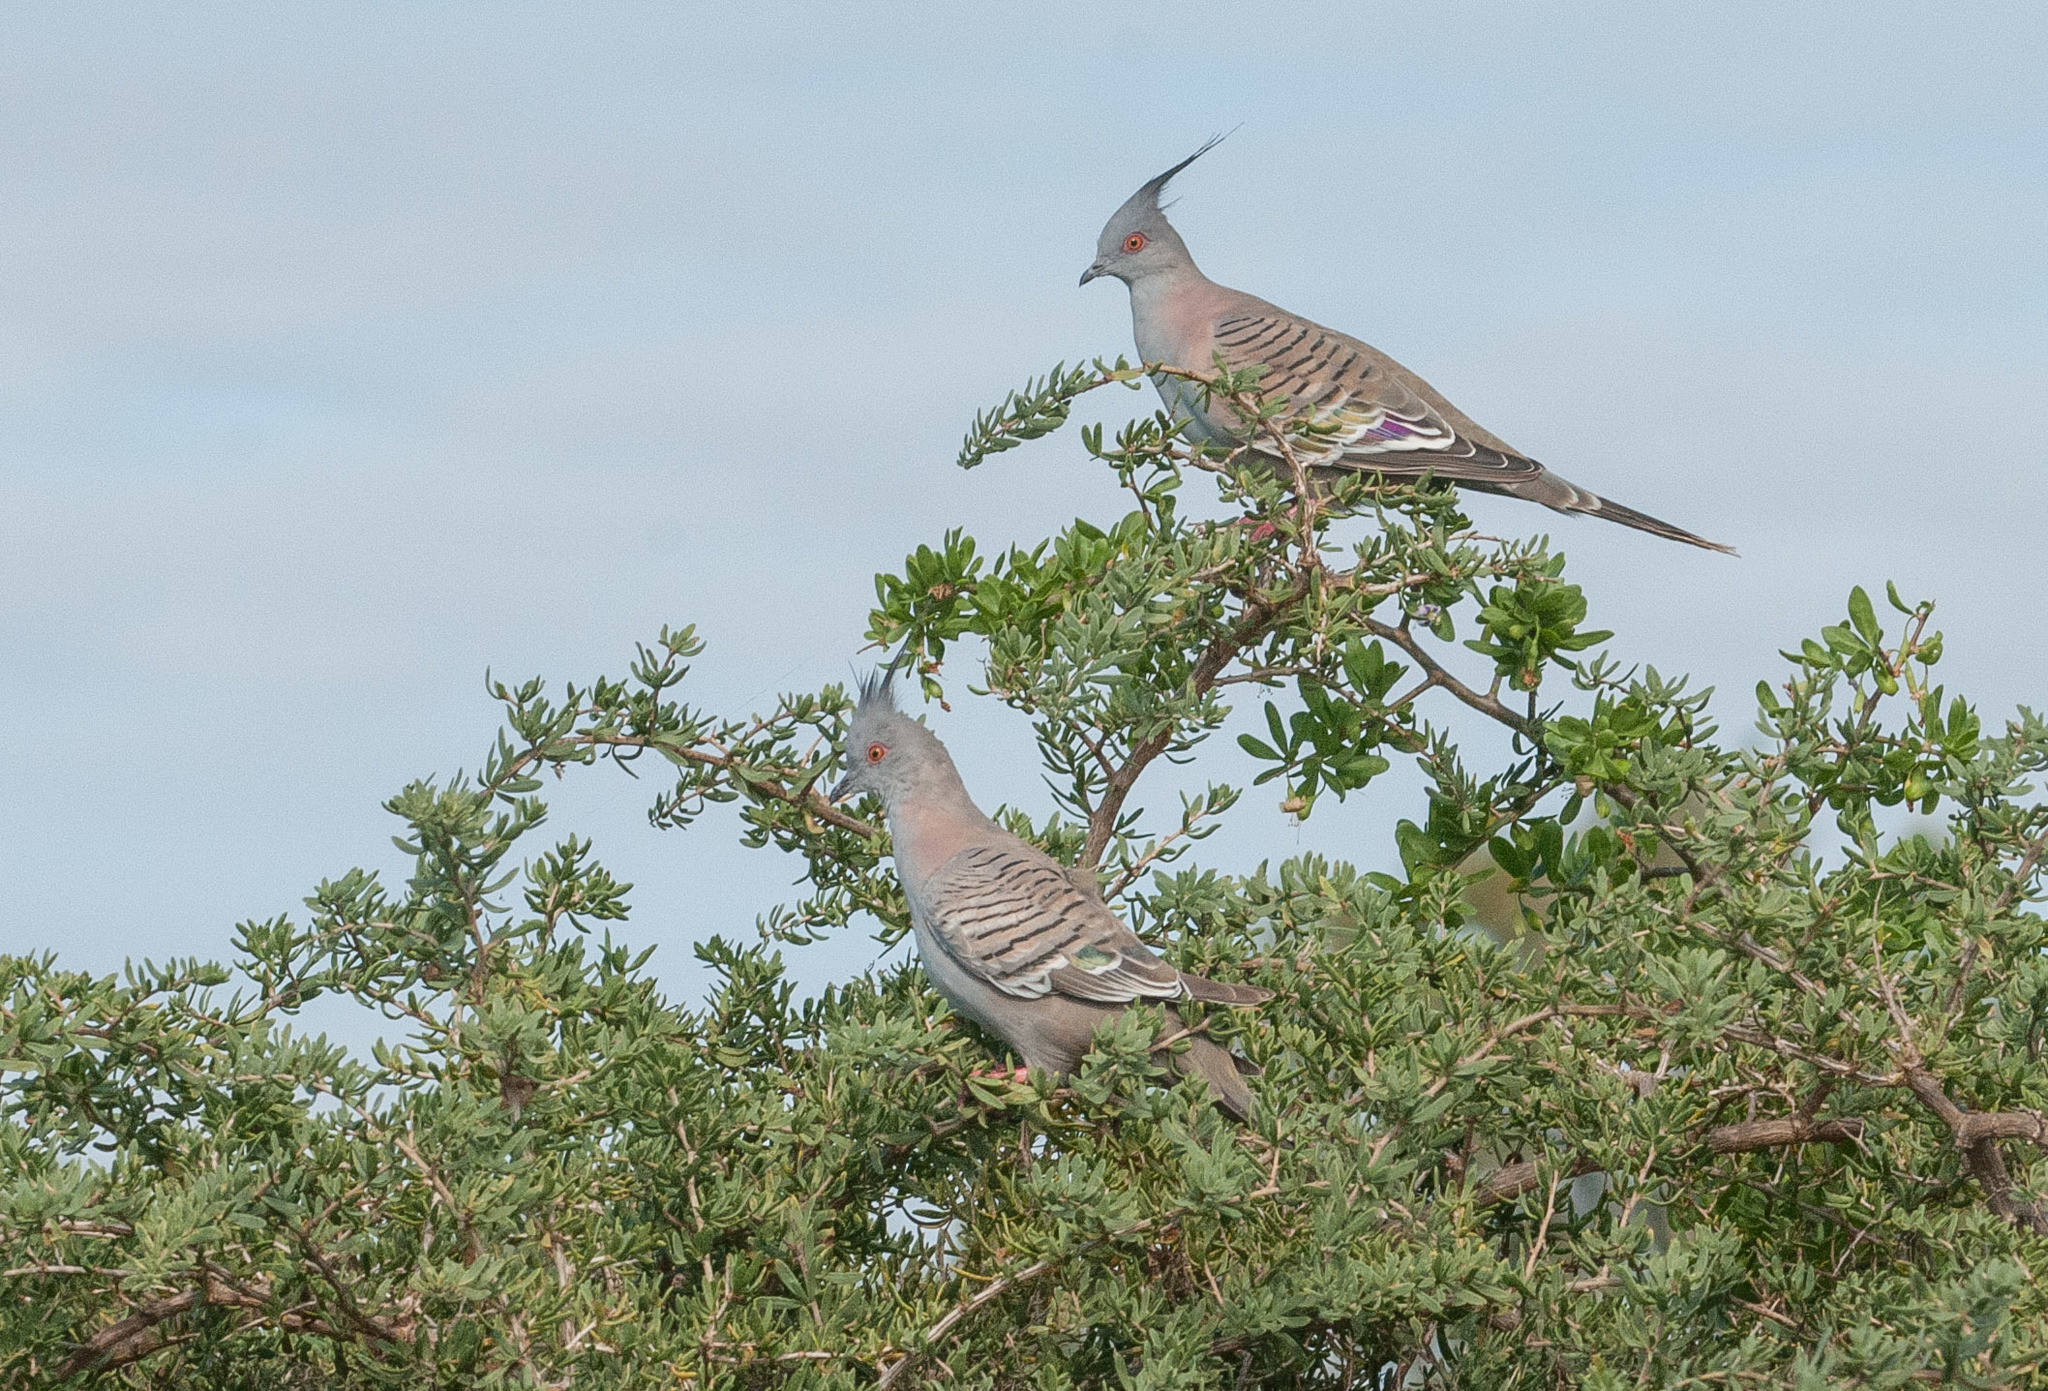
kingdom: Animalia
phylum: Chordata
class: Aves
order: Columbiformes
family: Columbidae
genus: Ocyphaps
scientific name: Ocyphaps lophotes
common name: Crested pigeon
